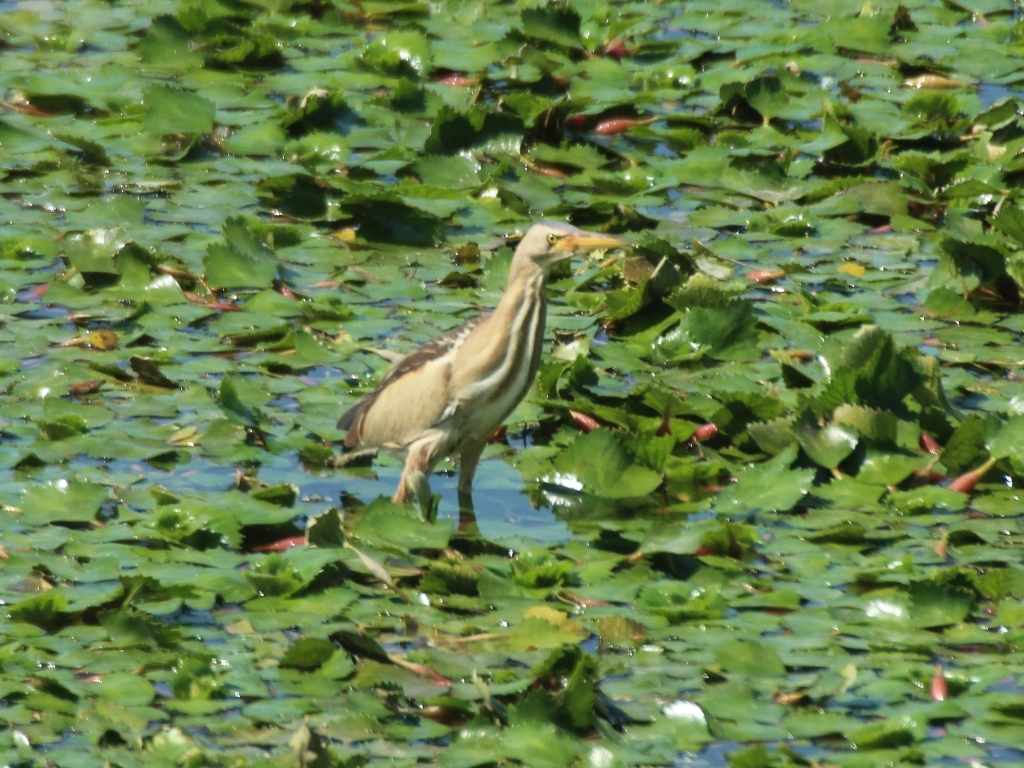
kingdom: Animalia
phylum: Chordata
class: Aves
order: Pelecaniformes
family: Ardeidae
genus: Ixobrychus
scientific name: Ixobrychus minutus
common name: Little bittern
